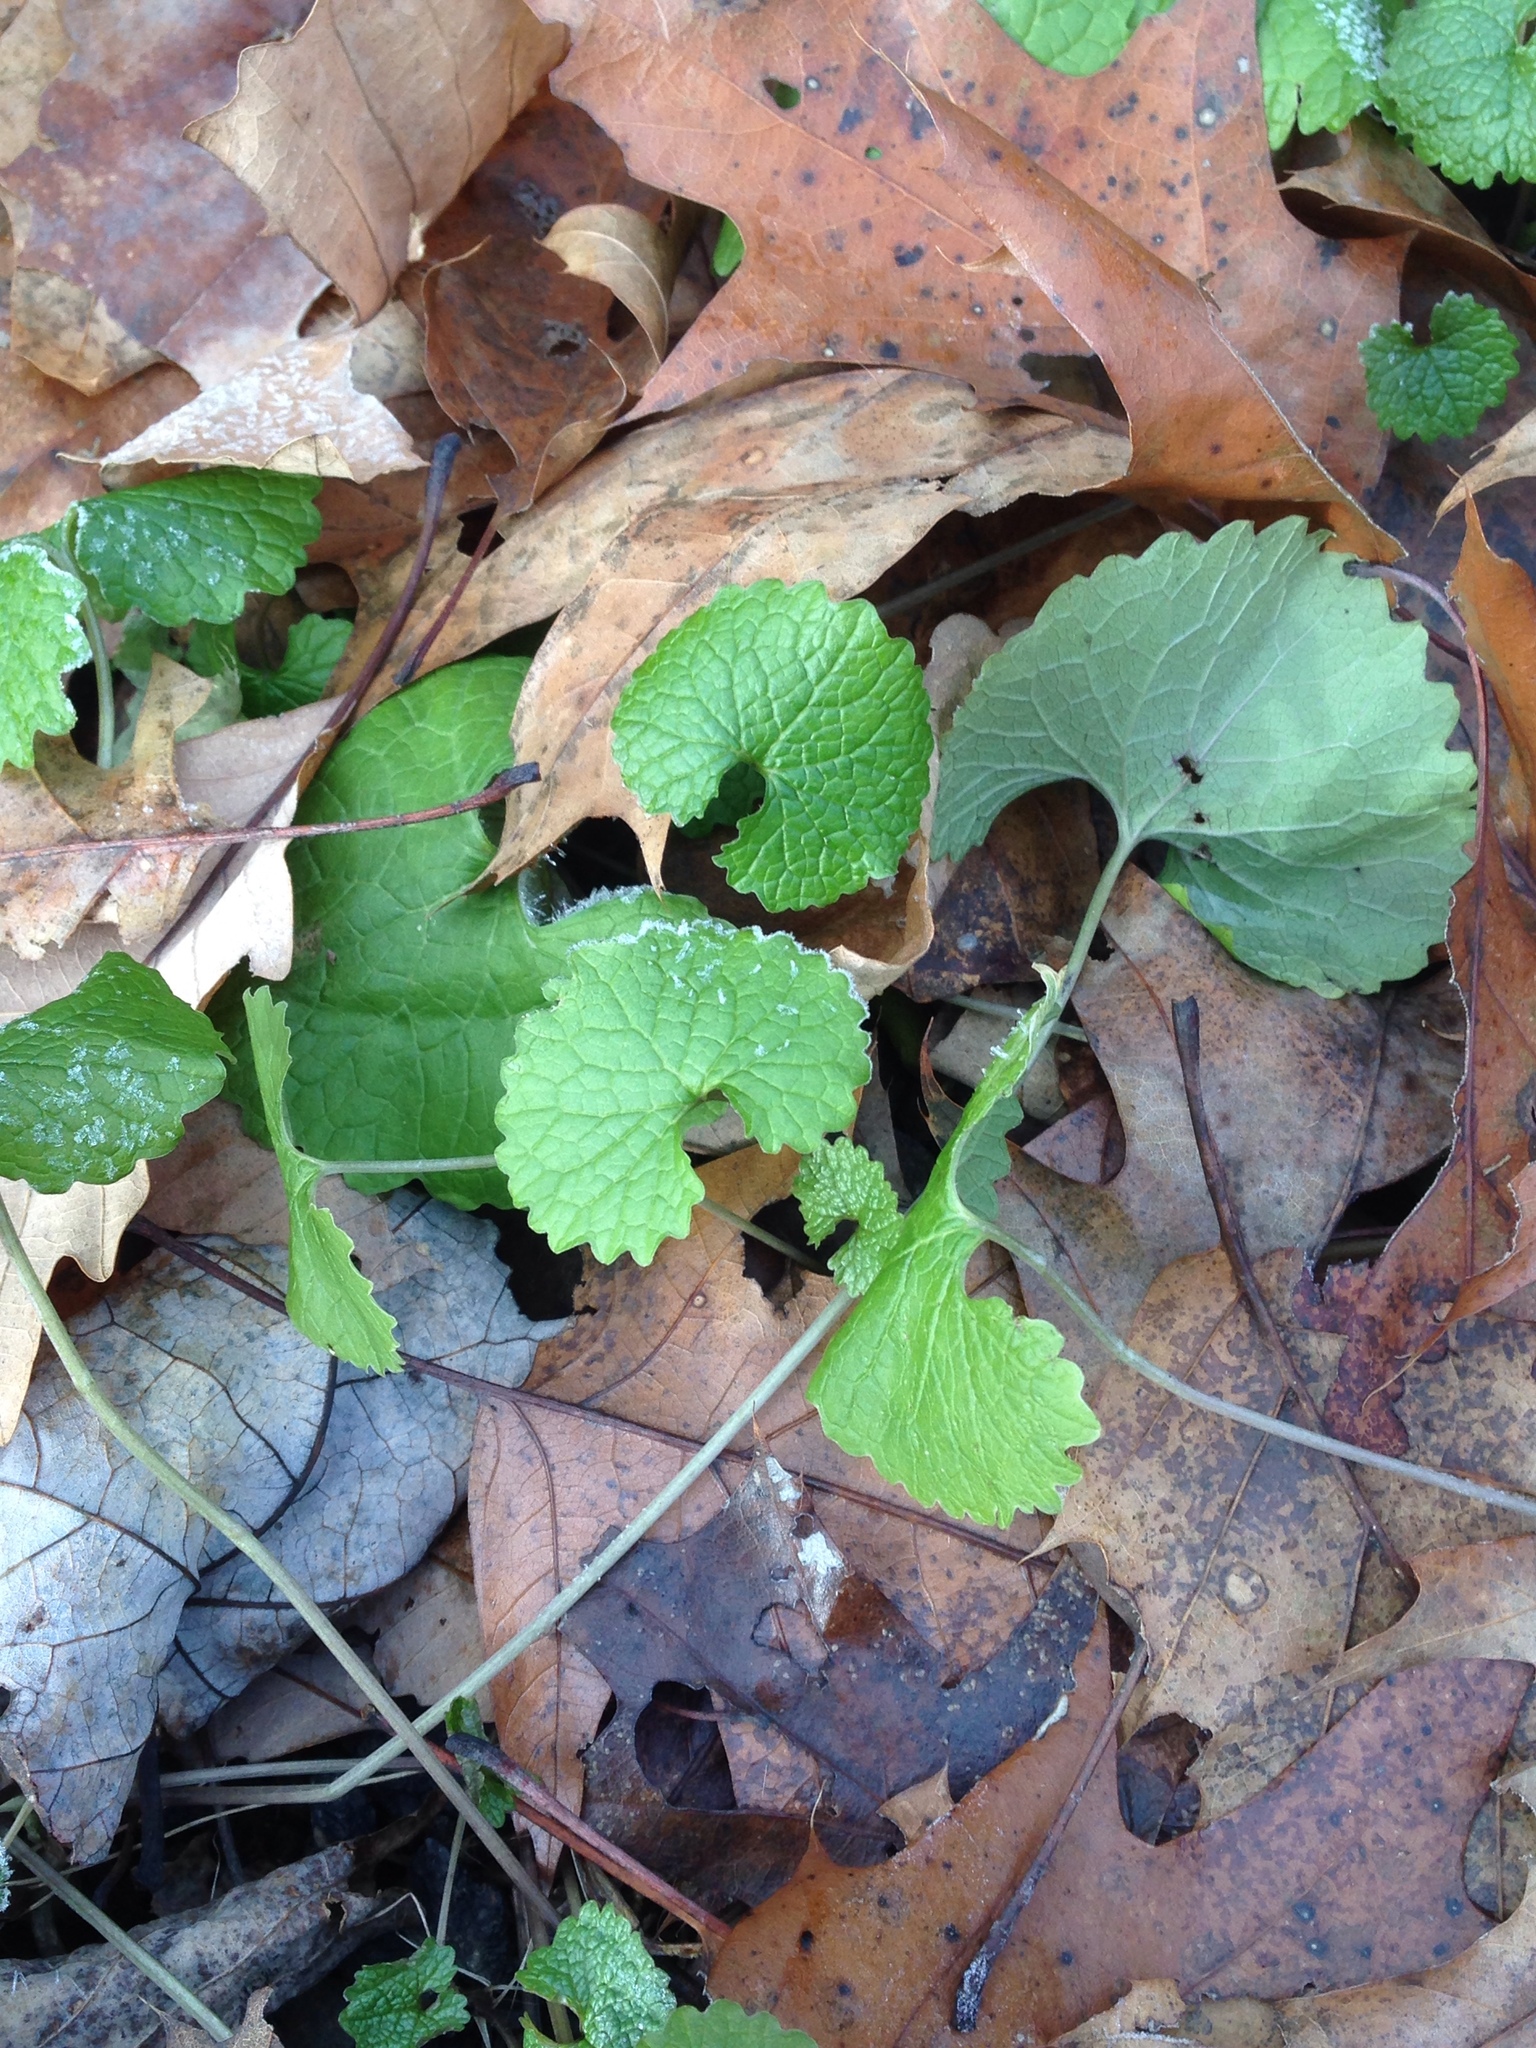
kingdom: Plantae
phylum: Tracheophyta
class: Magnoliopsida
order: Brassicales
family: Brassicaceae
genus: Alliaria
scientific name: Alliaria petiolata
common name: Garlic mustard
